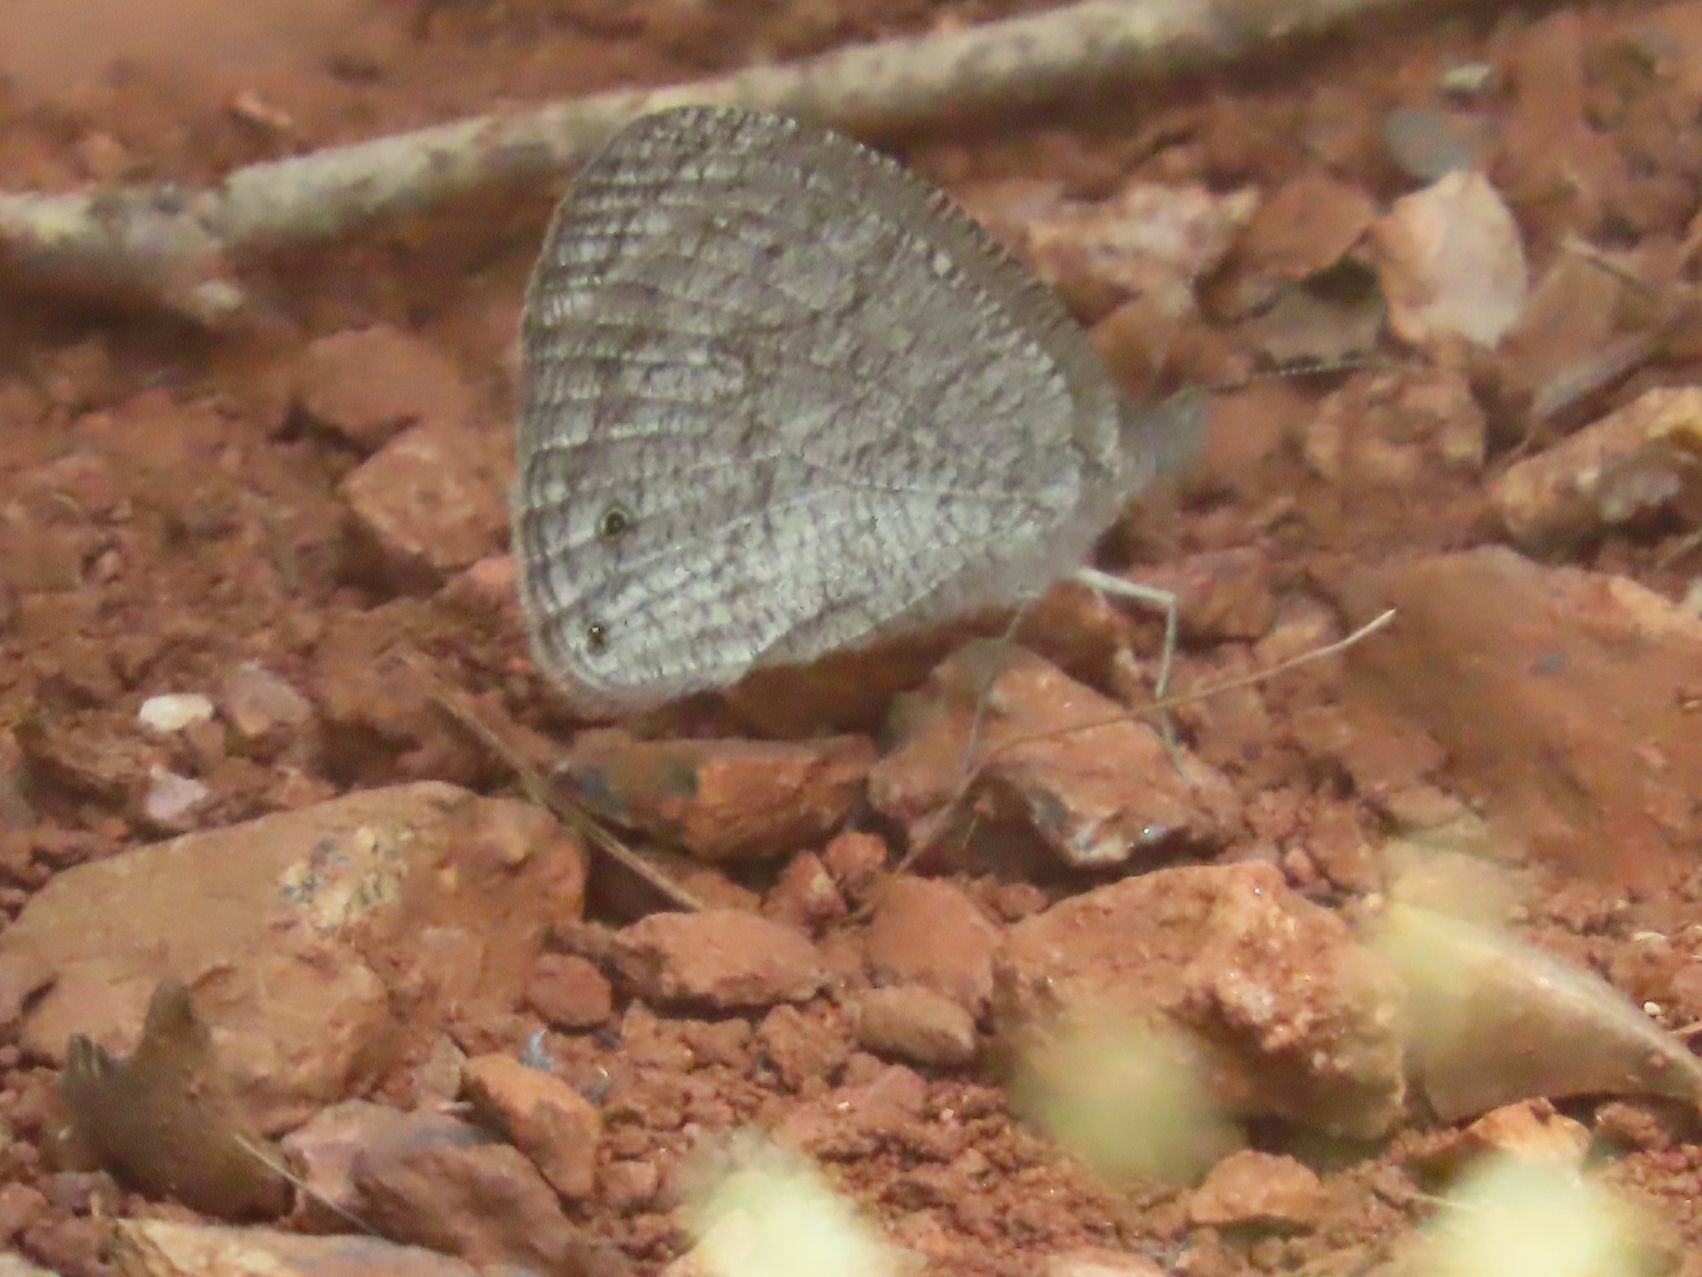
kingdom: Animalia
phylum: Arthropoda
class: Insecta
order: Lepidoptera
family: Nymphalidae
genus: Ypthima
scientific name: Ypthima impura
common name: Bushland ringlet
